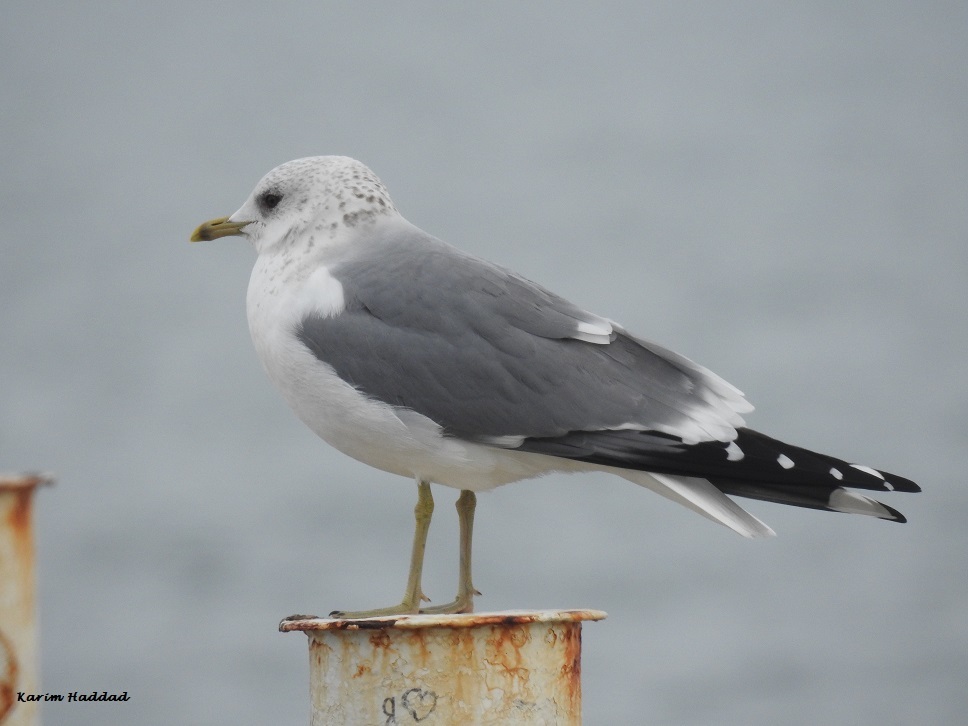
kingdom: Animalia
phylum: Chordata
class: Aves
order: Charadriiformes
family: Laridae
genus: Larus
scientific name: Larus canus
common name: Mew gull
